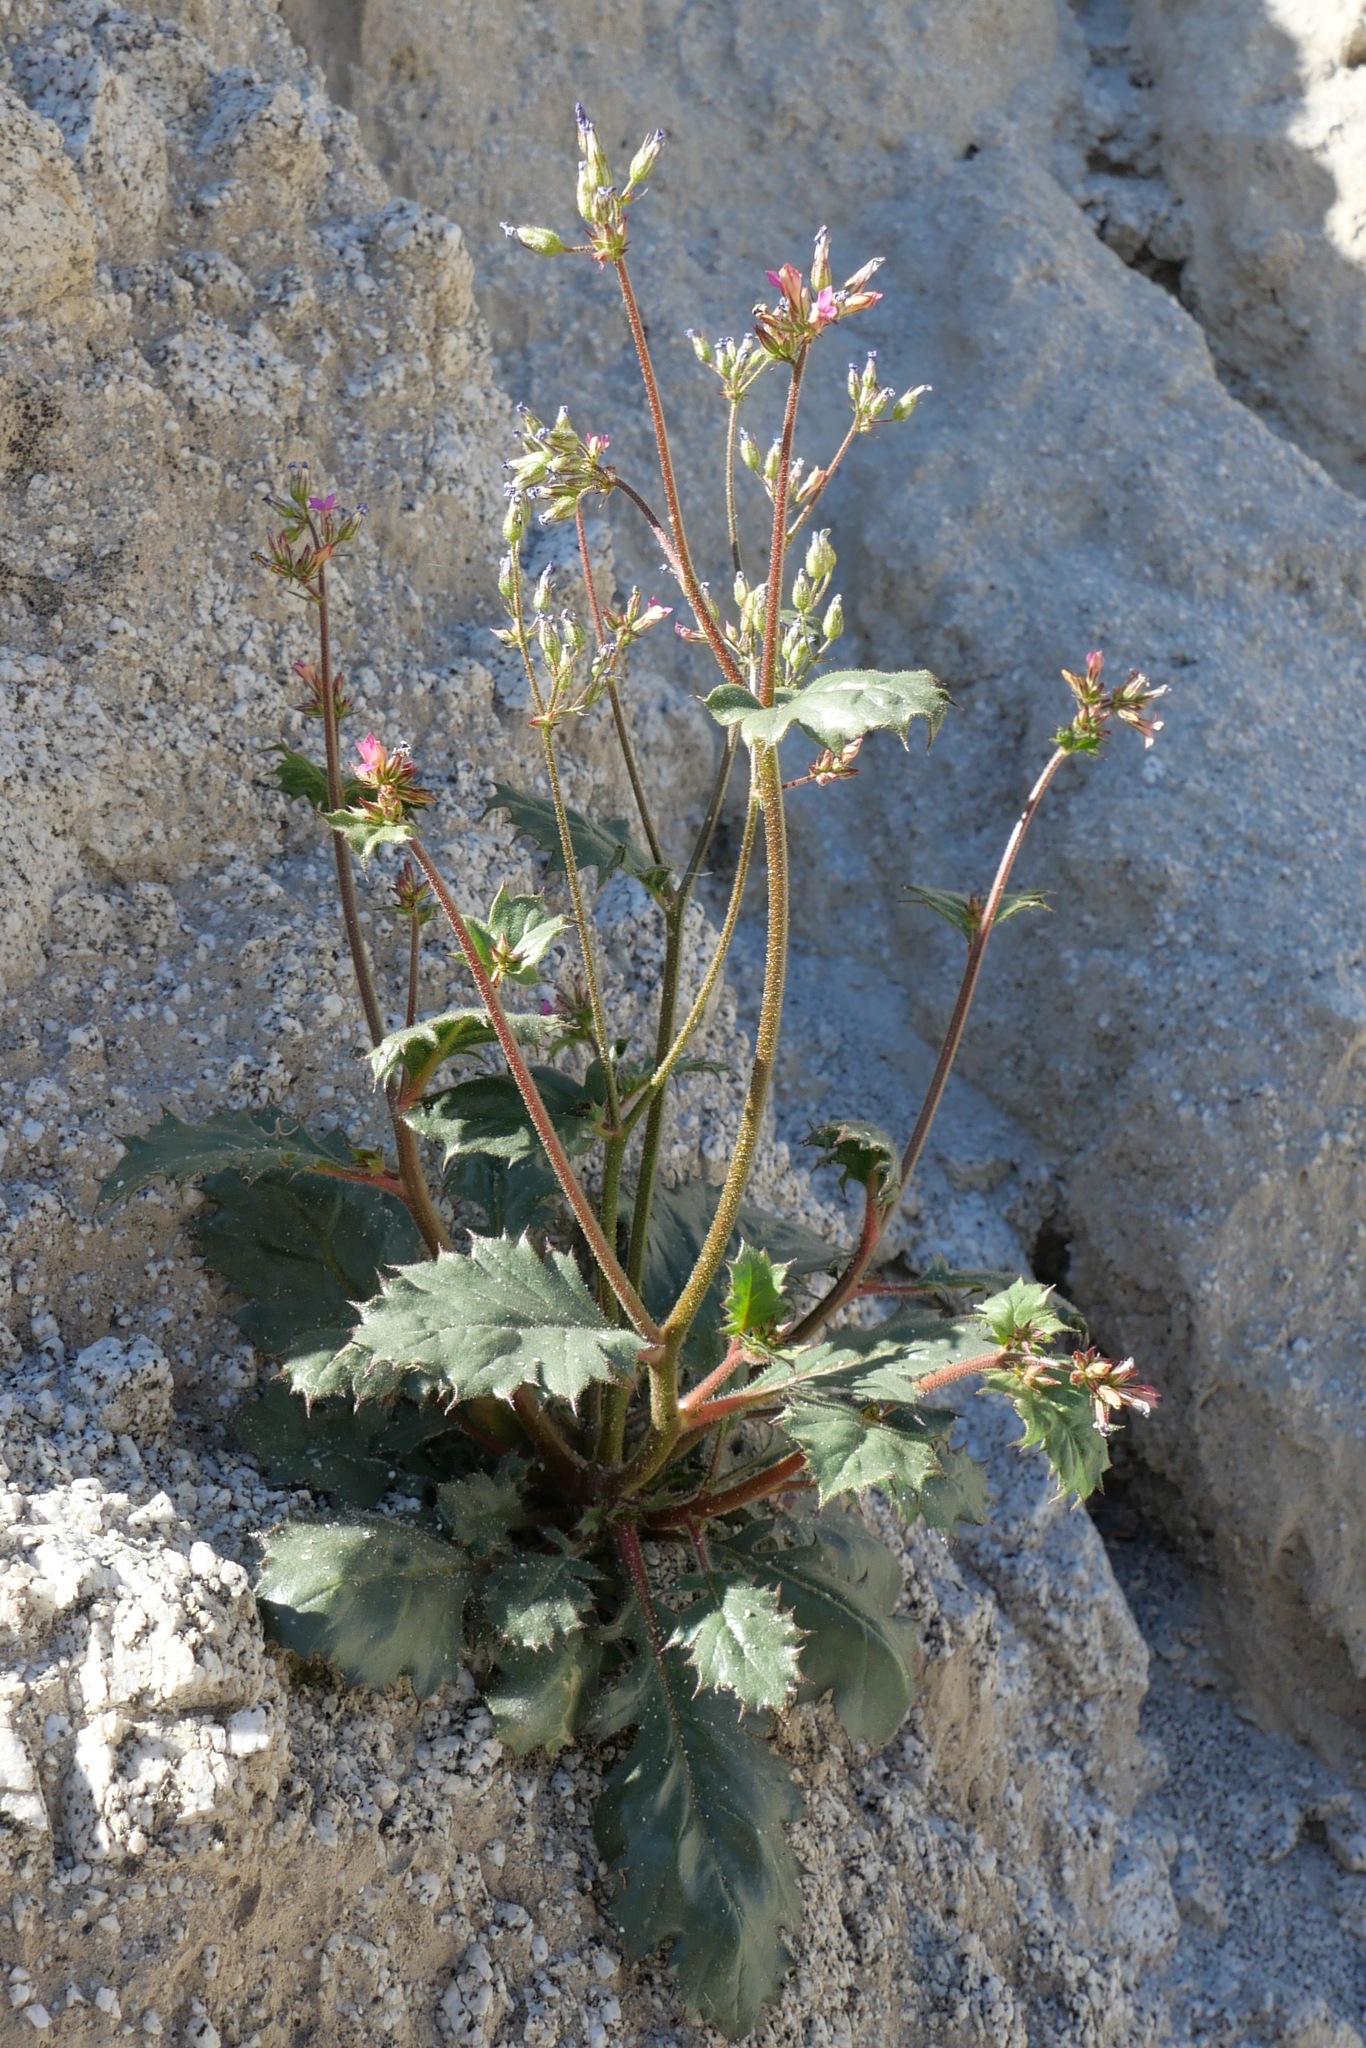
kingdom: Plantae
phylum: Tracheophyta
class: Magnoliopsida
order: Ericales
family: Polemoniaceae
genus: Aliciella
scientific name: Aliciella latifolia
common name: Broad-leaf gilia
